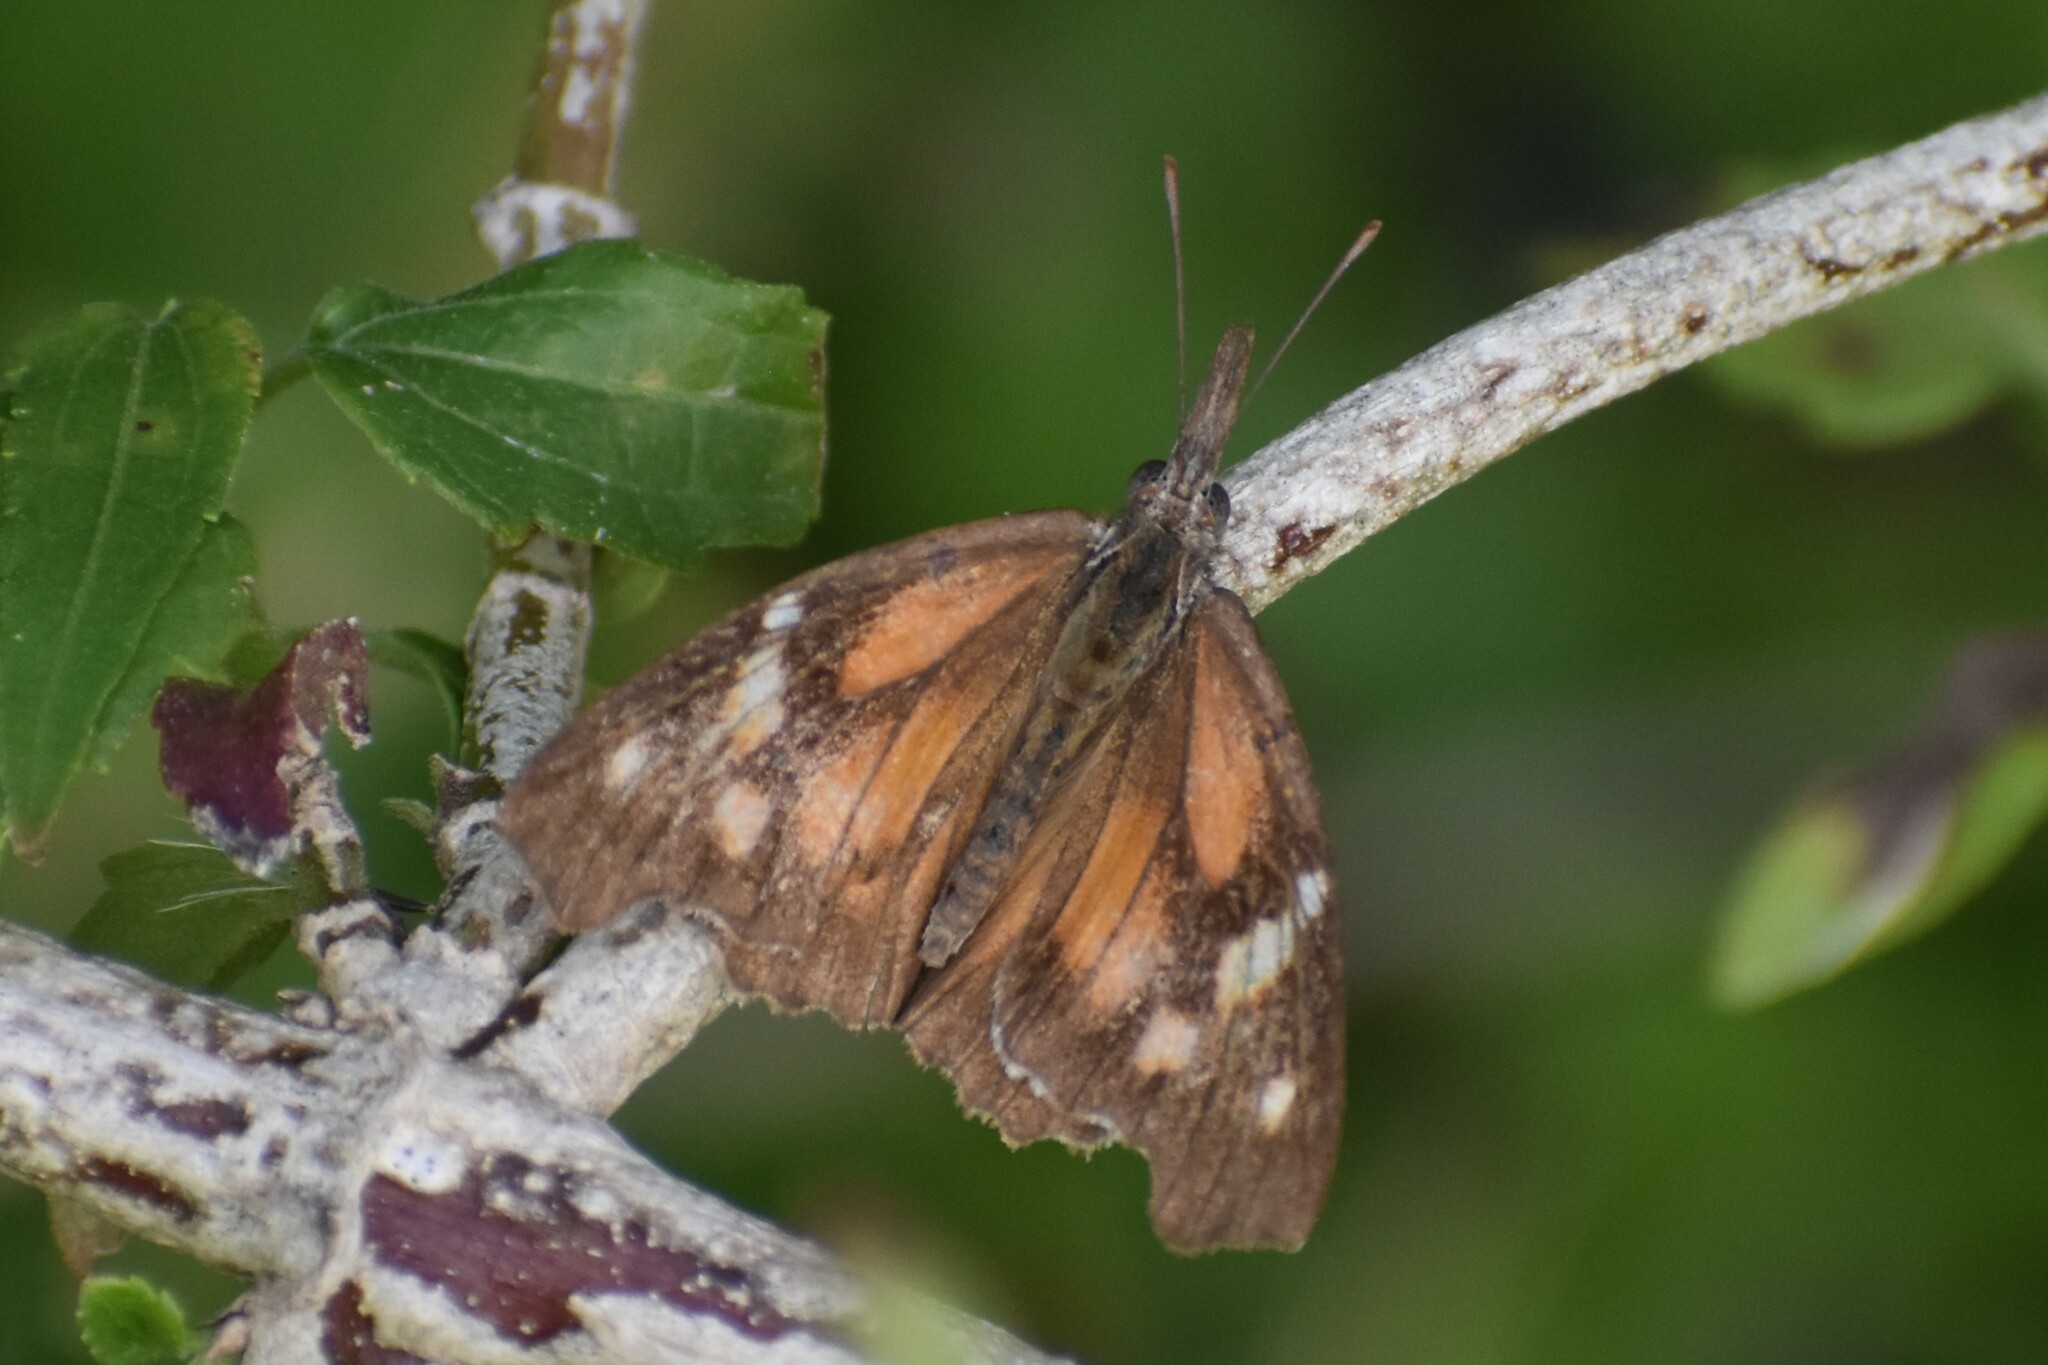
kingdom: Animalia
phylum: Arthropoda
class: Insecta
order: Lepidoptera
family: Nymphalidae
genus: Libytheana
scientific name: Libytheana carinenta
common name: American snout
